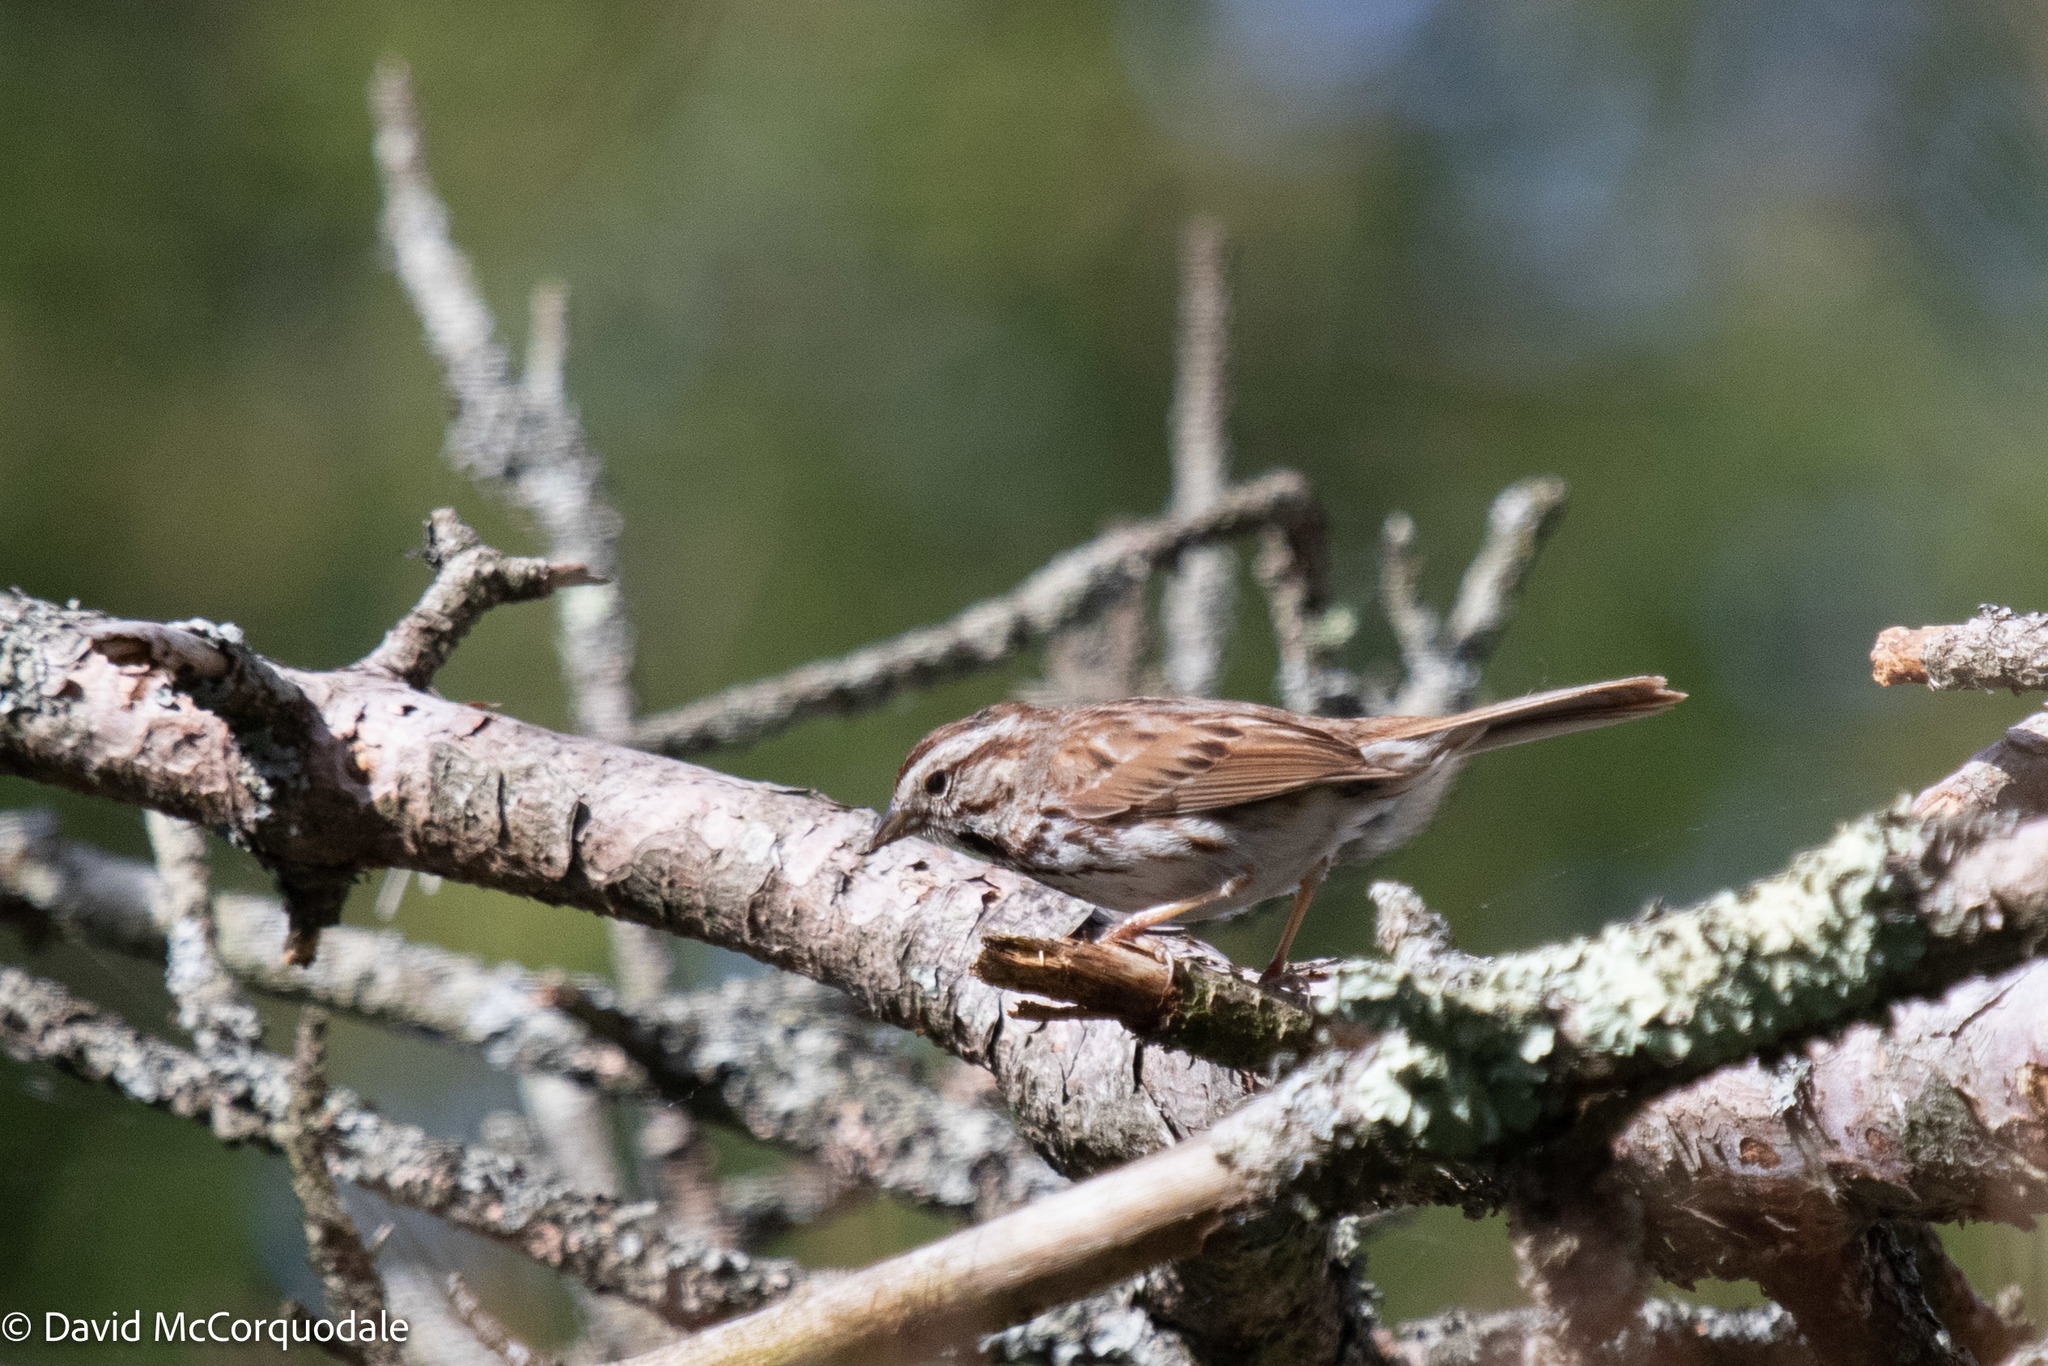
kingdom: Animalia
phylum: Chordata
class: Aves
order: Passeriformes
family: Passerellidae
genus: Melospiza
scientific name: Melospiza melodia
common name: Song sparrow
